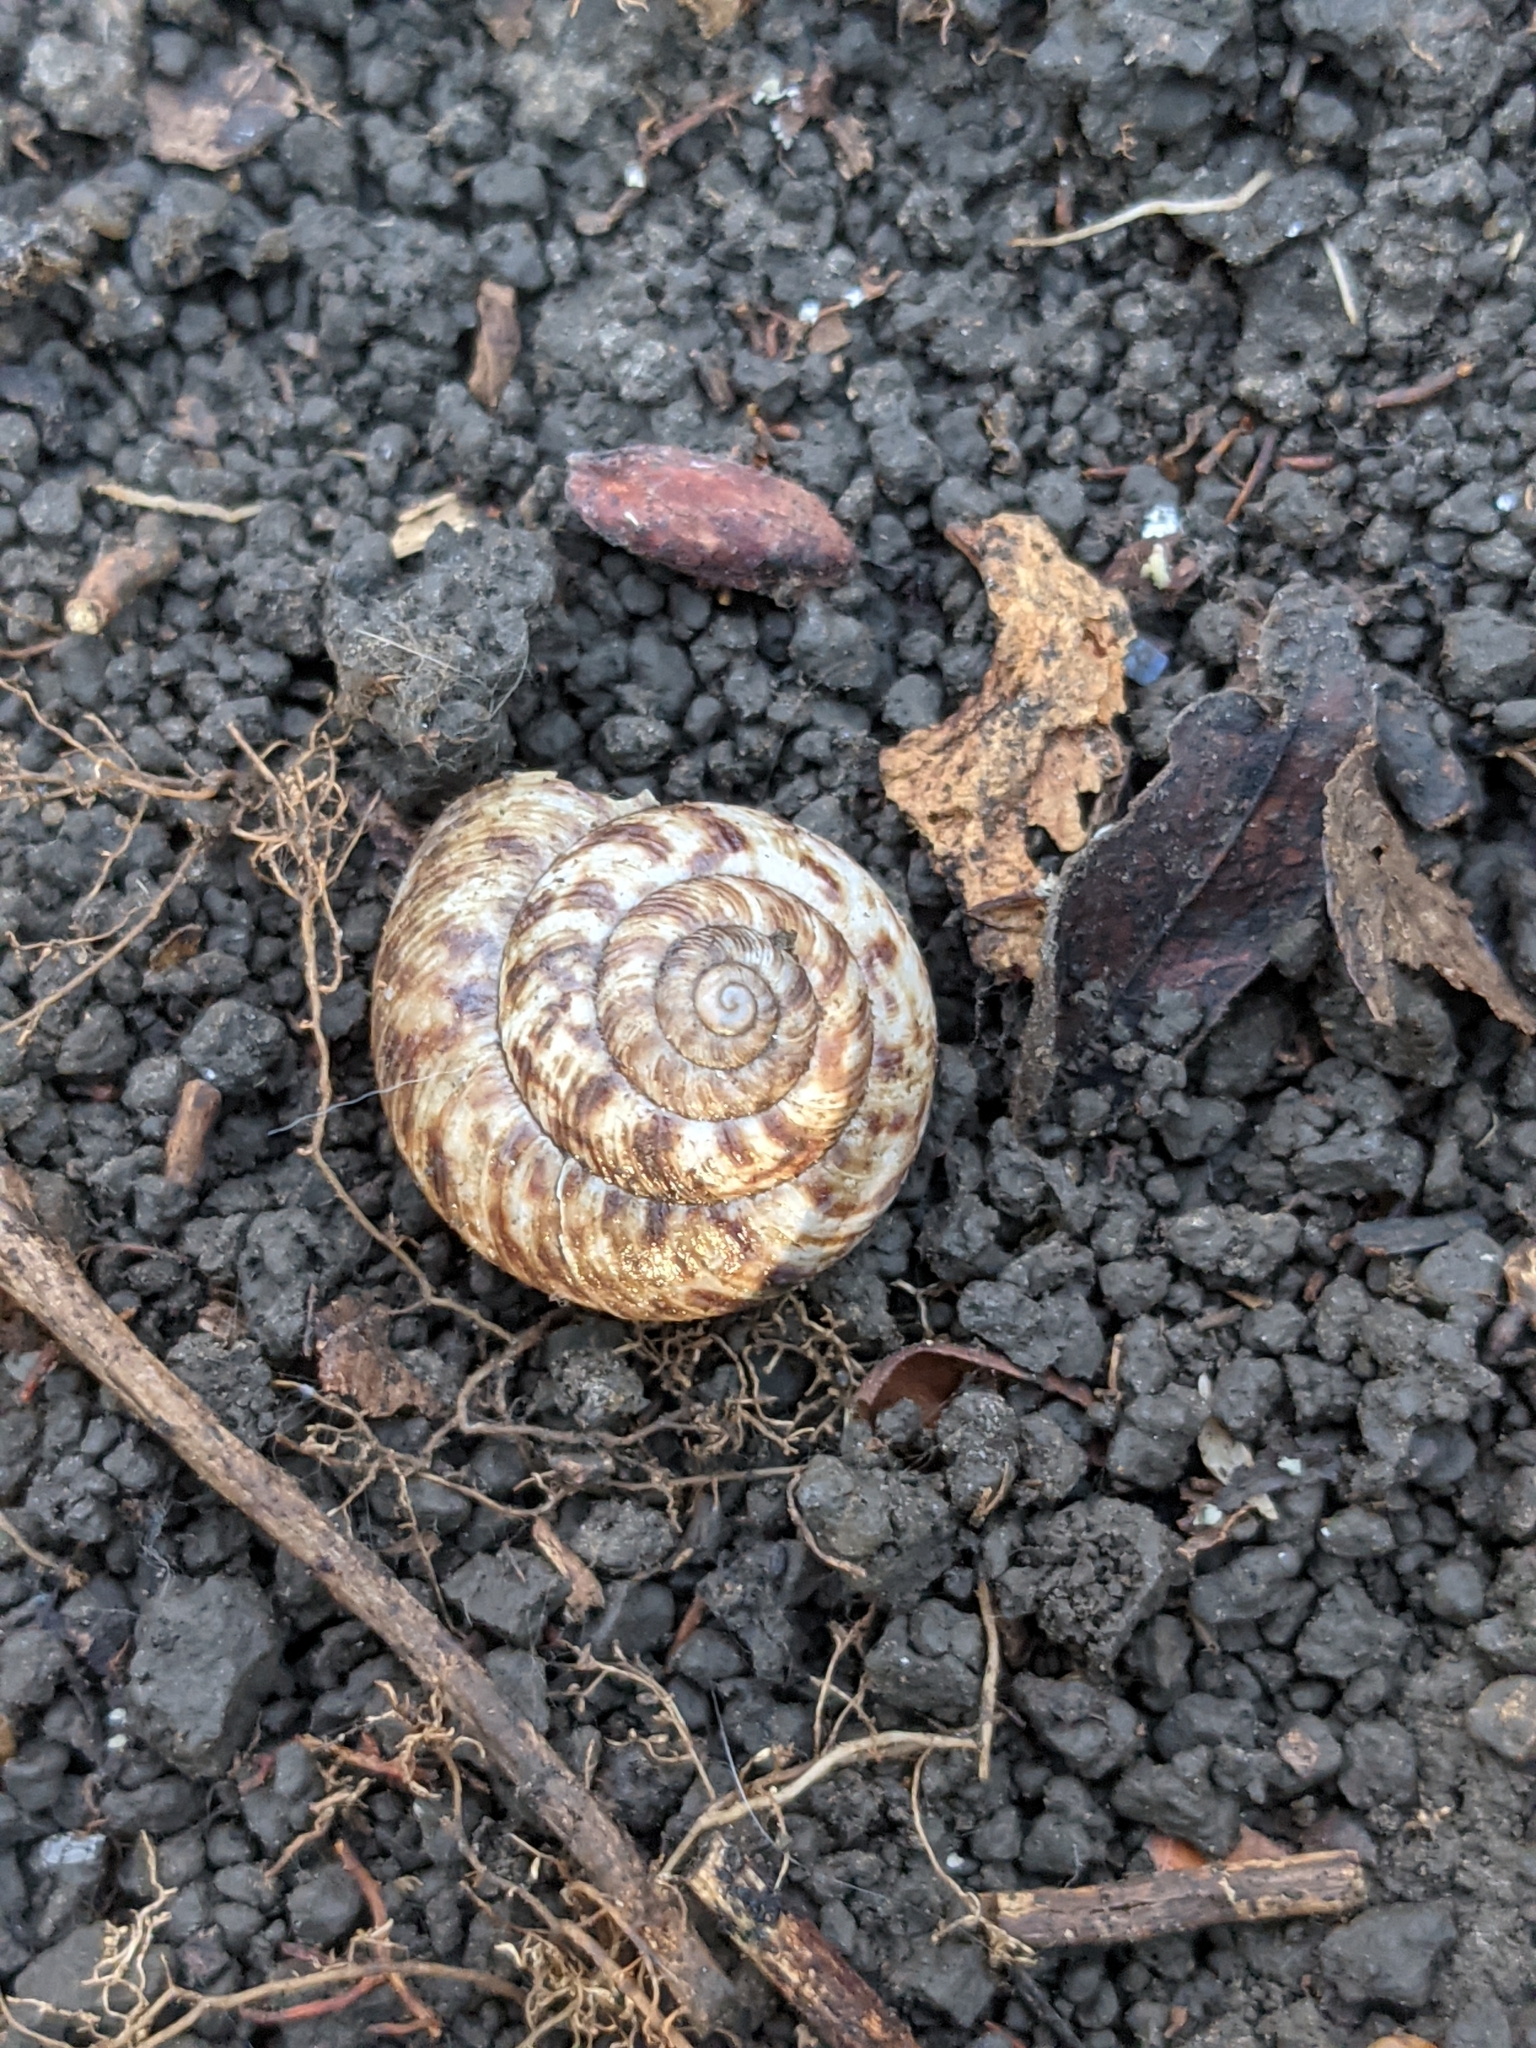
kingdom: Animalia
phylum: Mollusca
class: Gastropoda
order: Stylommatophora
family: Discidae
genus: Anguispira
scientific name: Anguispira alternata
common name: Flamed tigersnail
